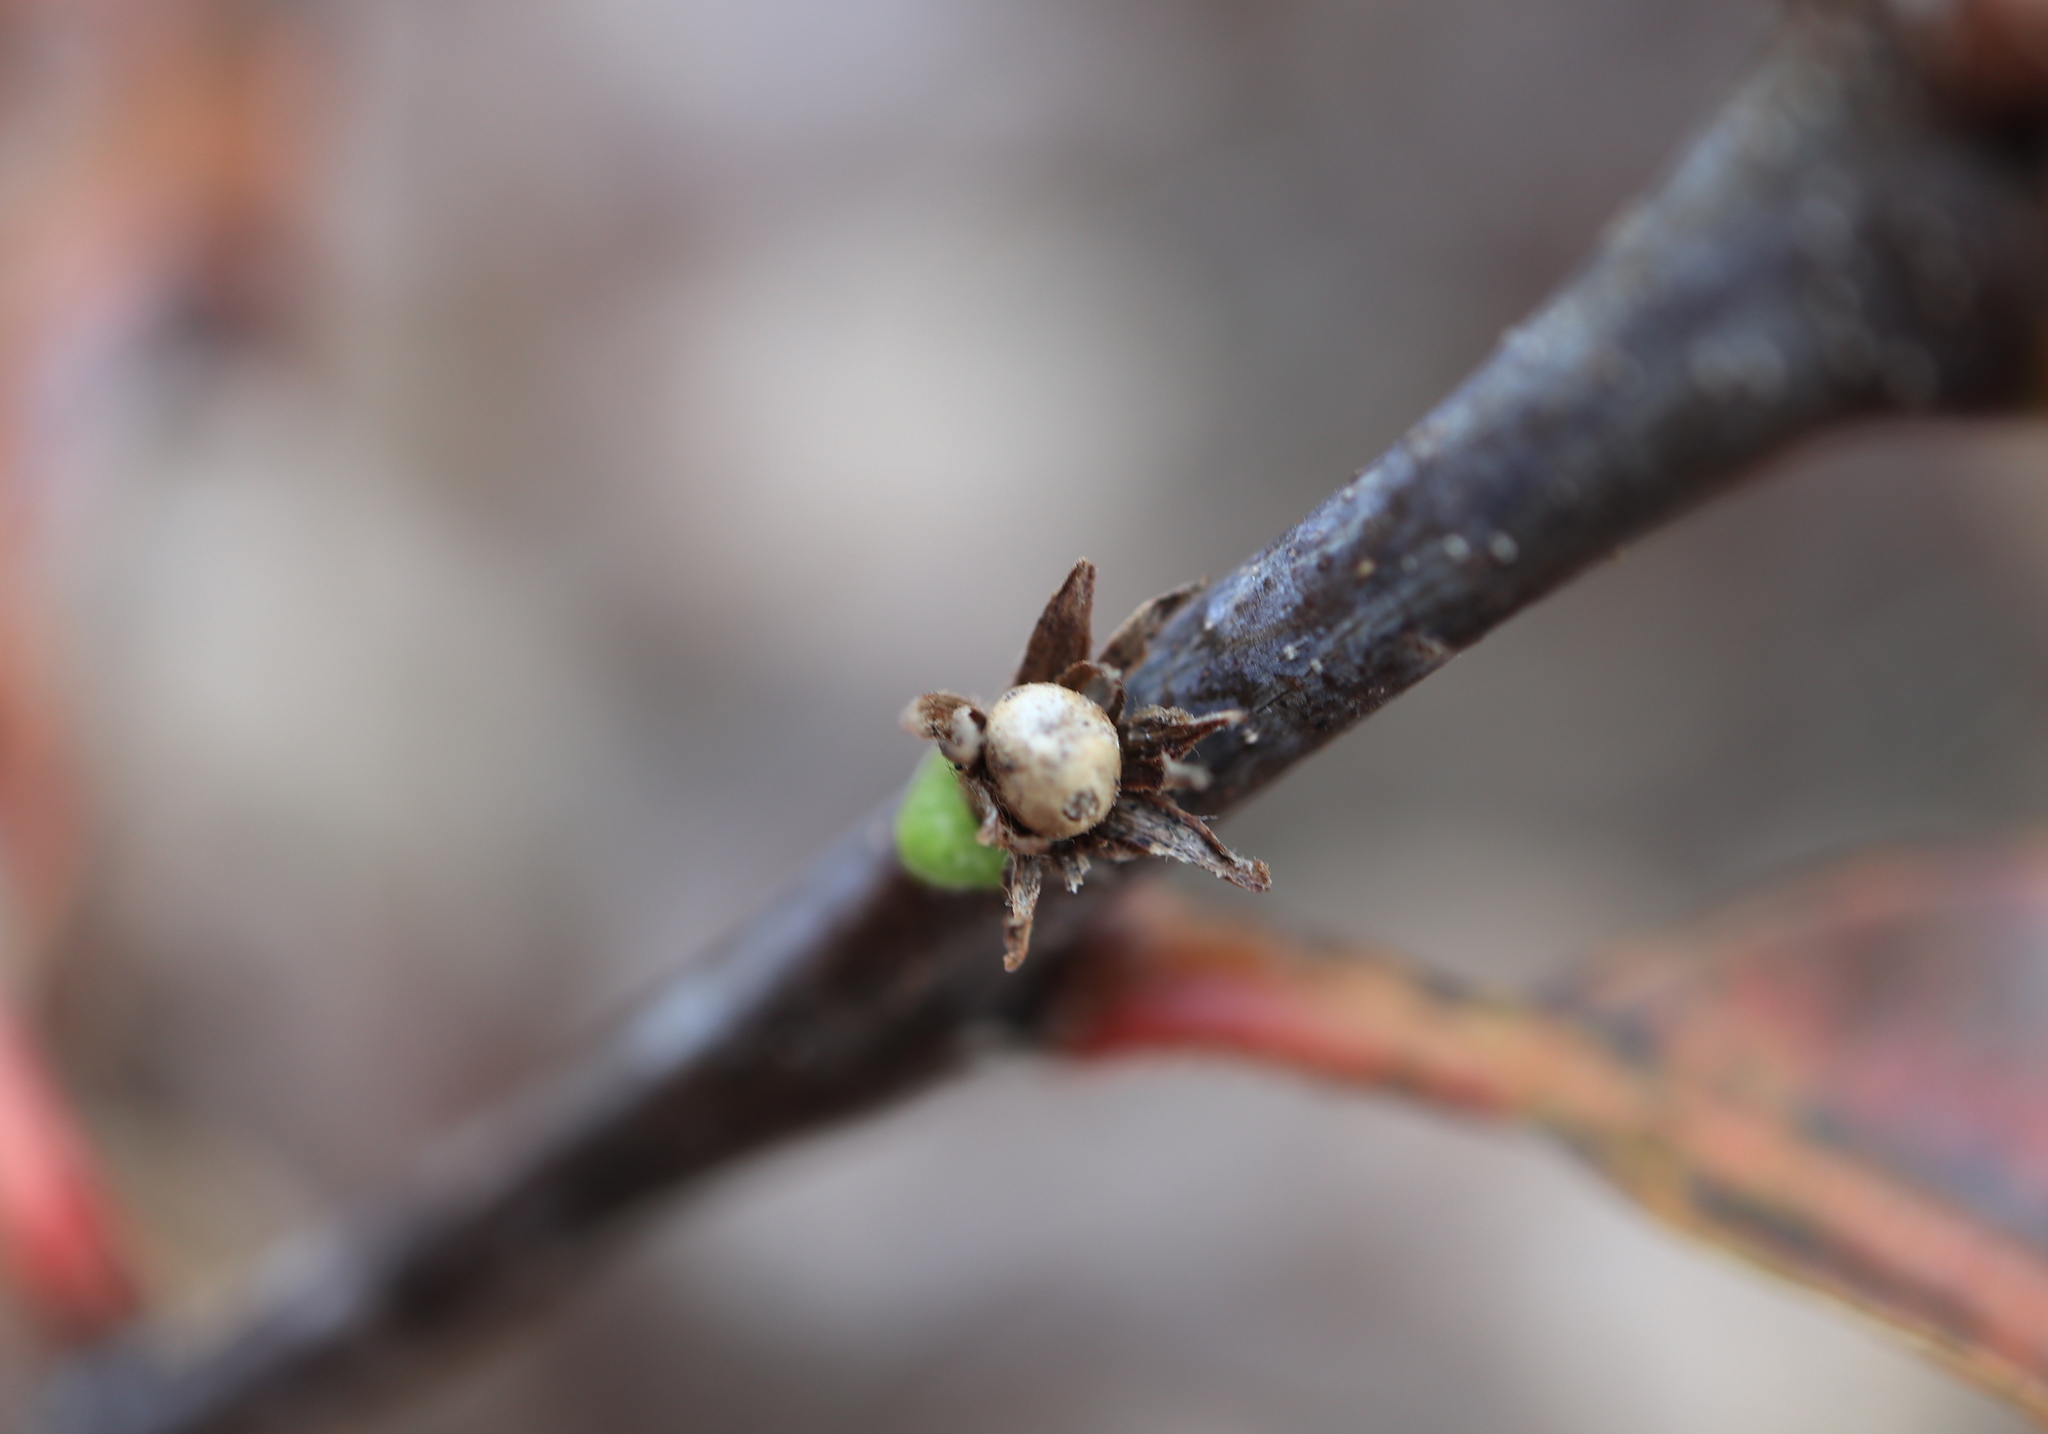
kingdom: Animalia
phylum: Arthropoda
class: Insecta
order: Hymenoptera
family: Cynipidae
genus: Andricus
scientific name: Andricus
